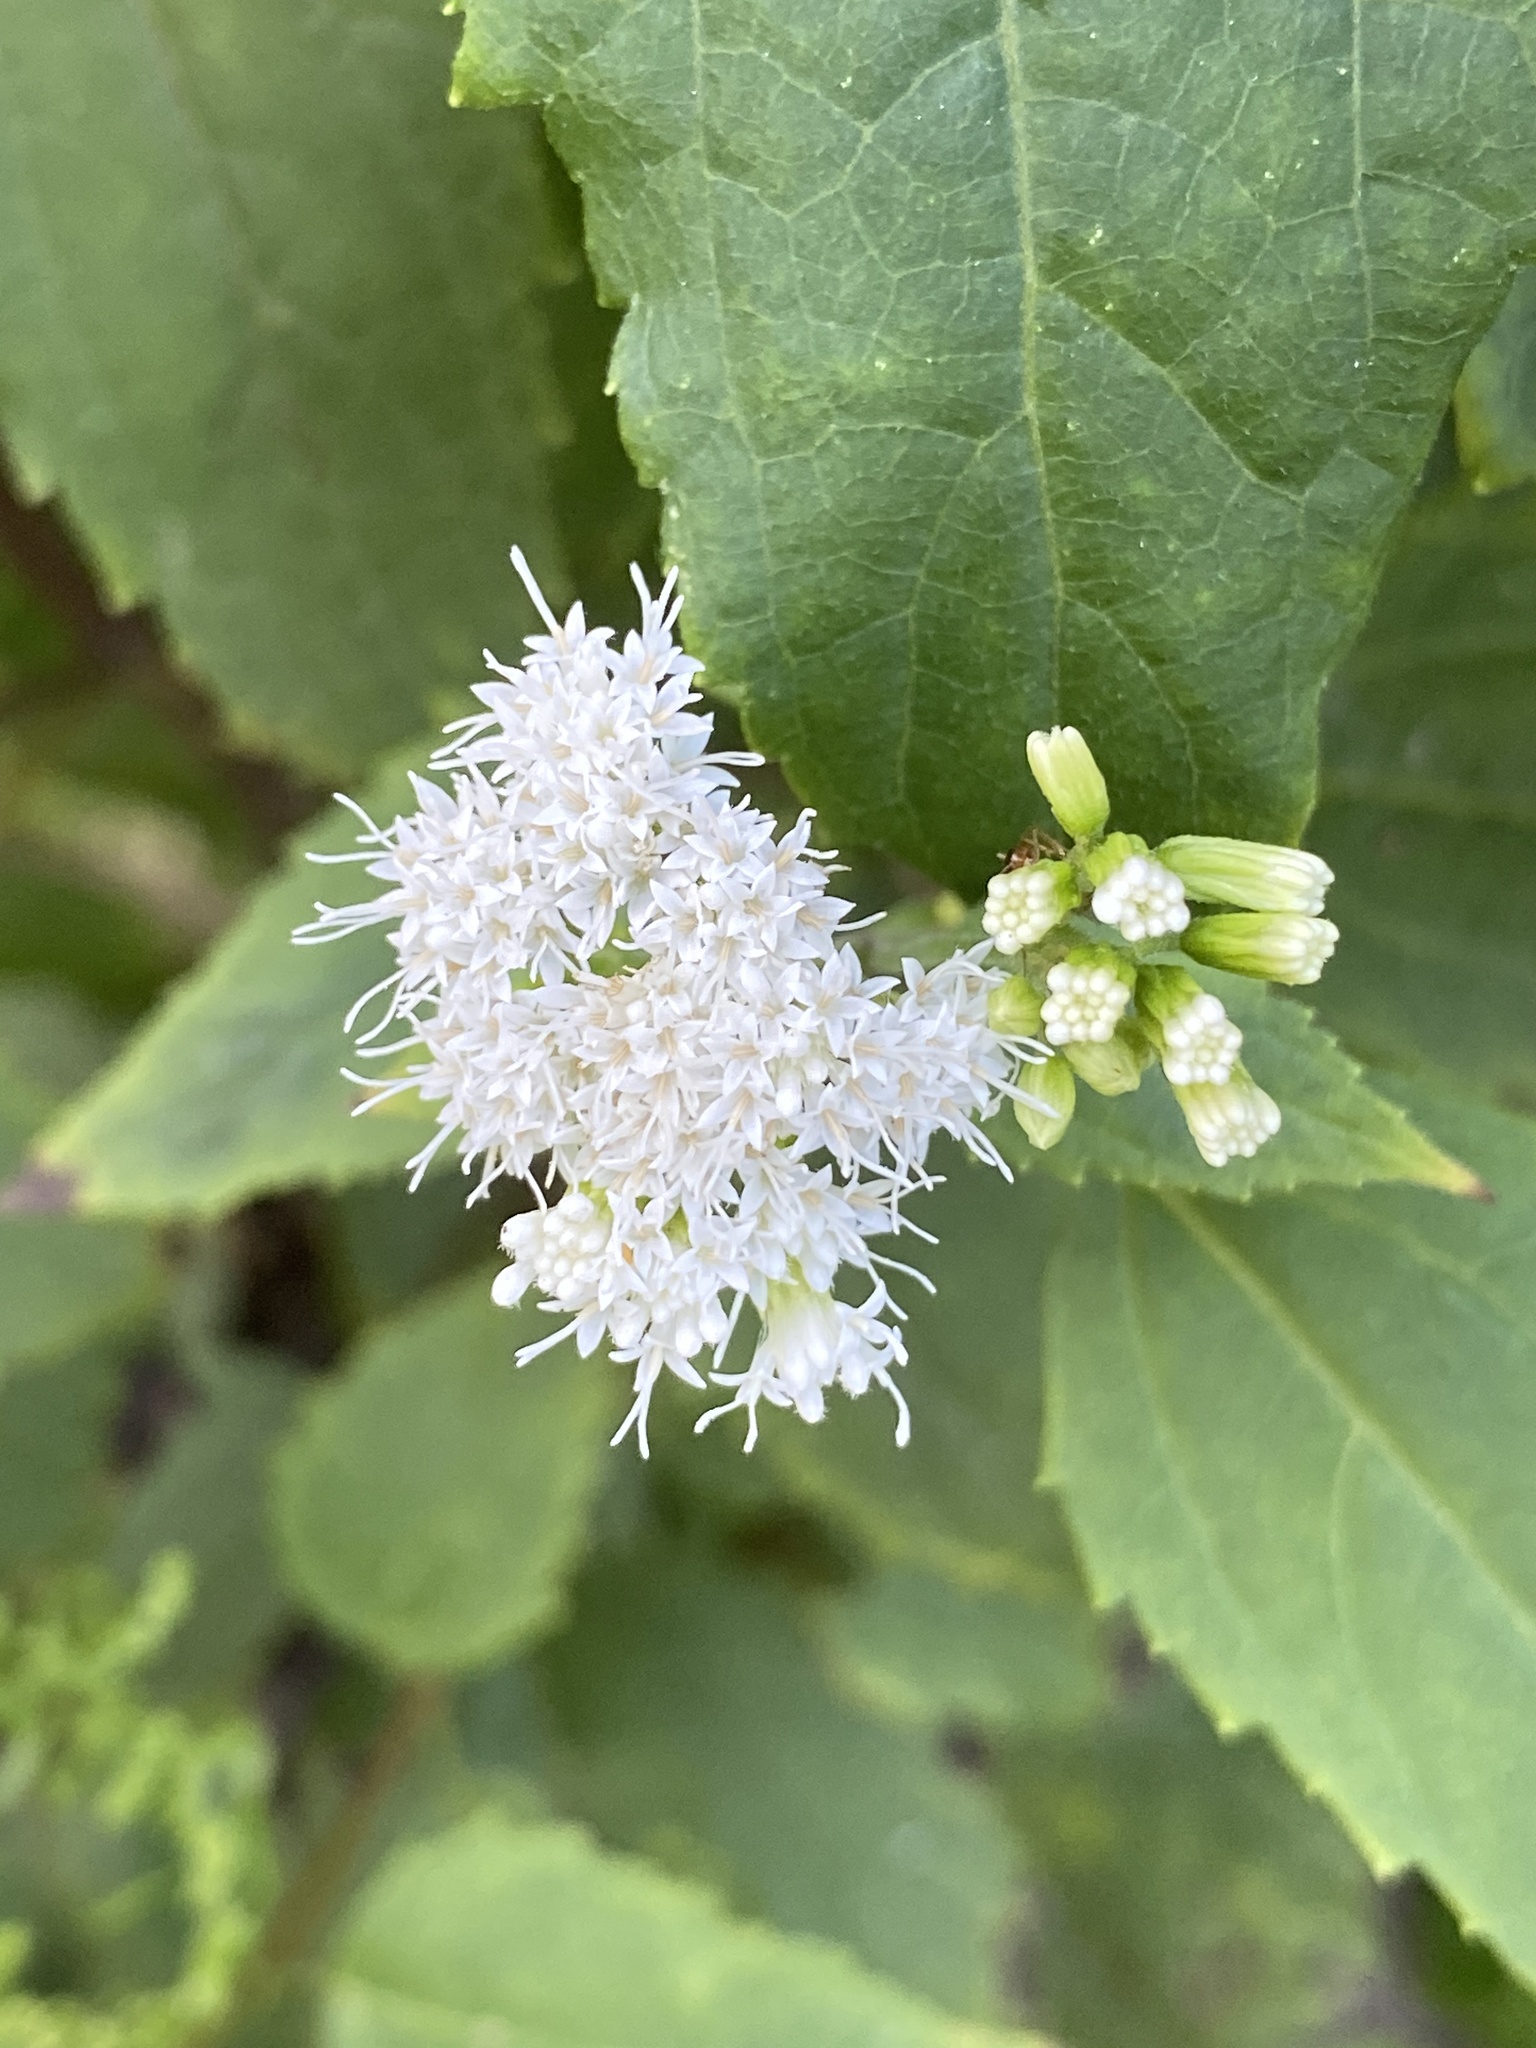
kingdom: Plantae
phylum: Tracheophyta
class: Magnoliopsida
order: Asterales
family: Asteraceae
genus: Ageratina
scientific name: Ageratina altissima
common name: White snakeroot
